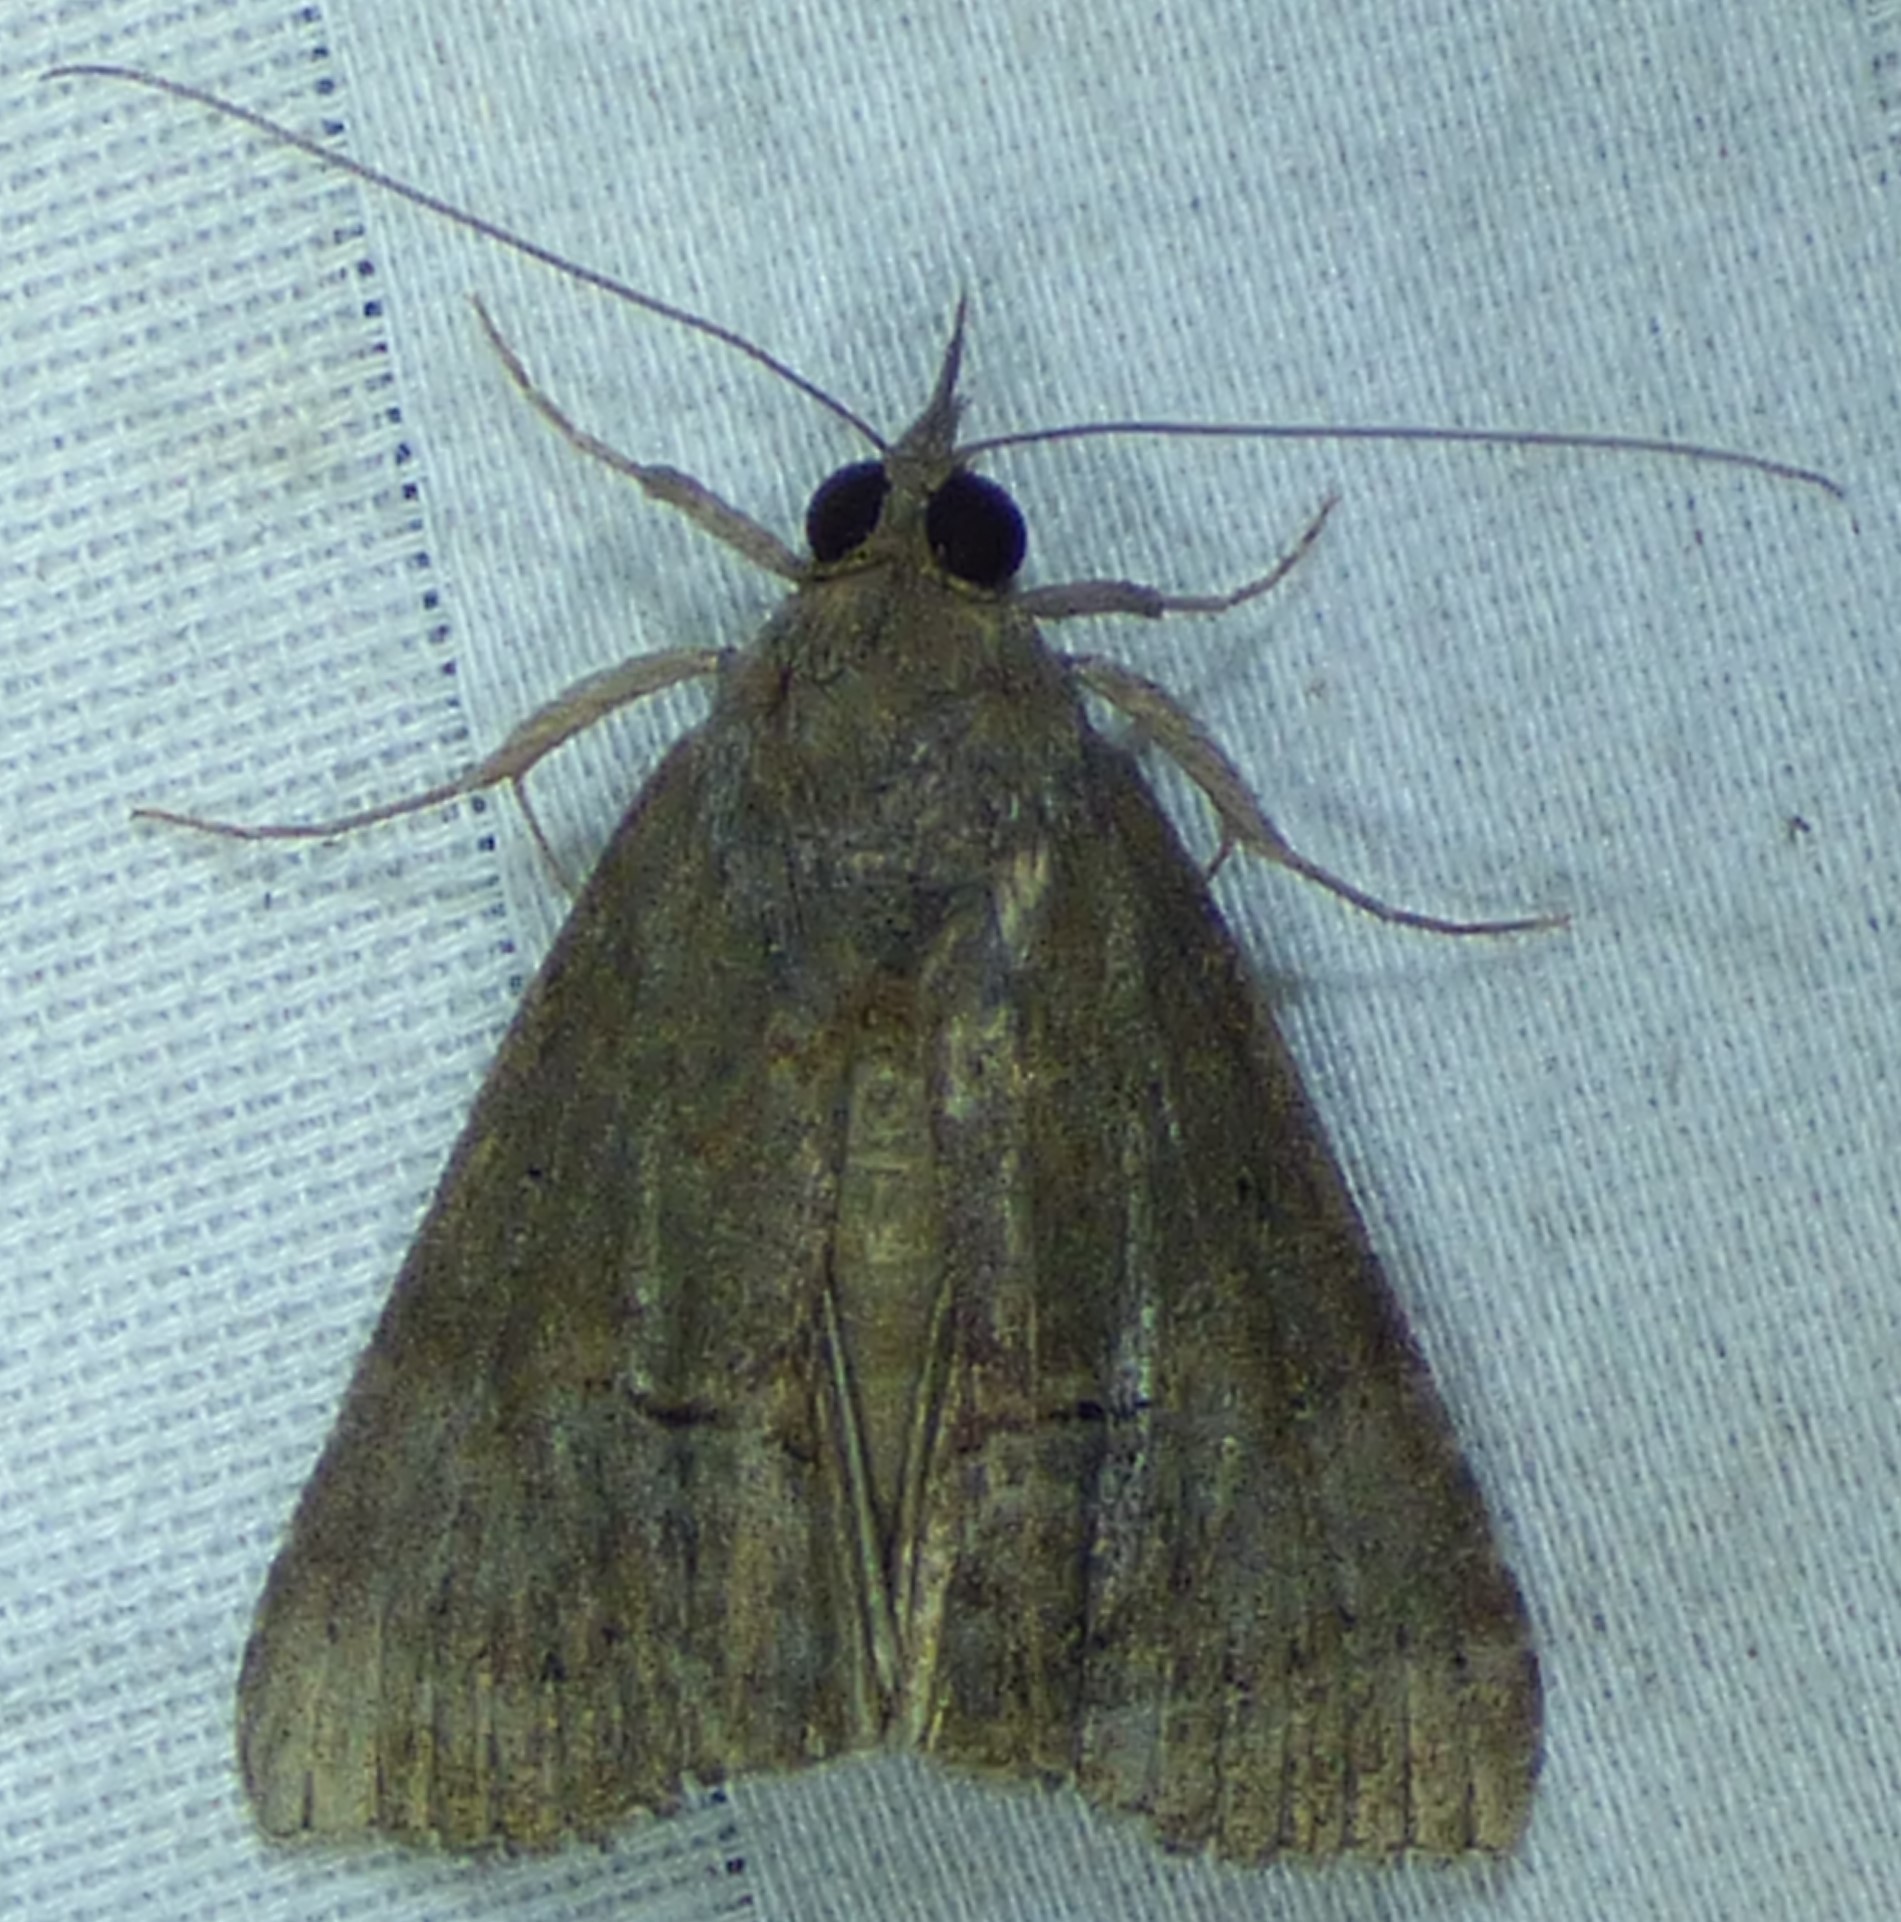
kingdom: Animalia
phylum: Arthropoda
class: Insecta
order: Lepidoptera
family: Erebidae
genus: Hypena
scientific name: Hypena scabra
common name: Green cloverworm
